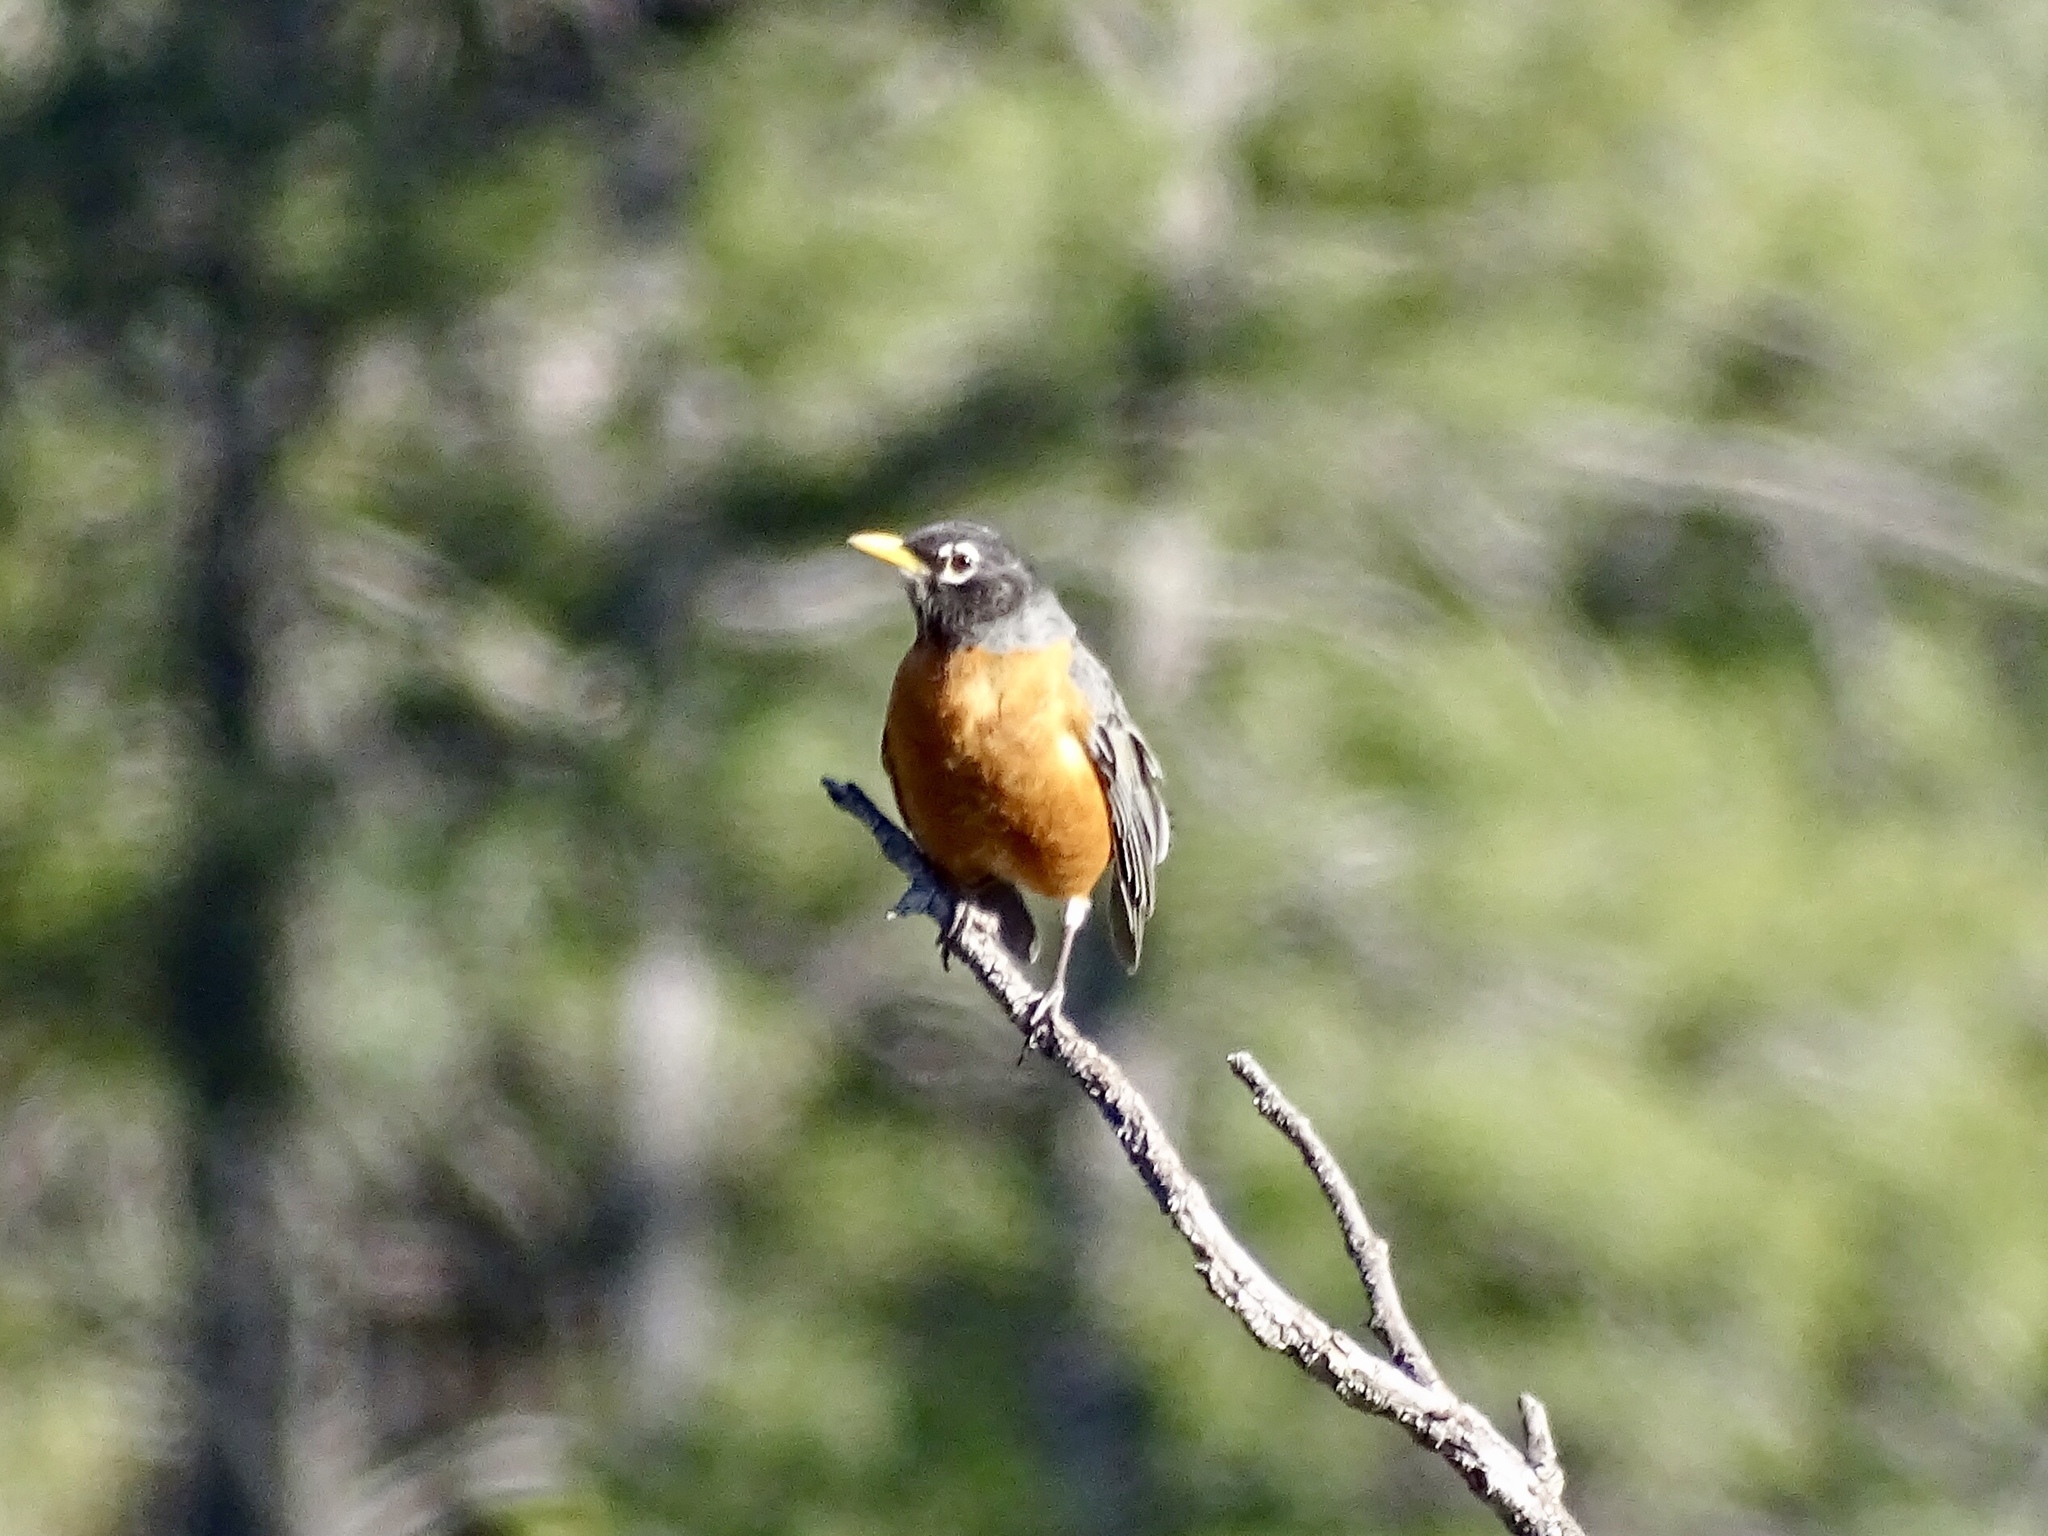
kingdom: Animalia
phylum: Chordata
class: Aves
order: Passeriformes
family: Turdidae
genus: Turdus
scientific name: Turdus migratorius
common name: American robin
